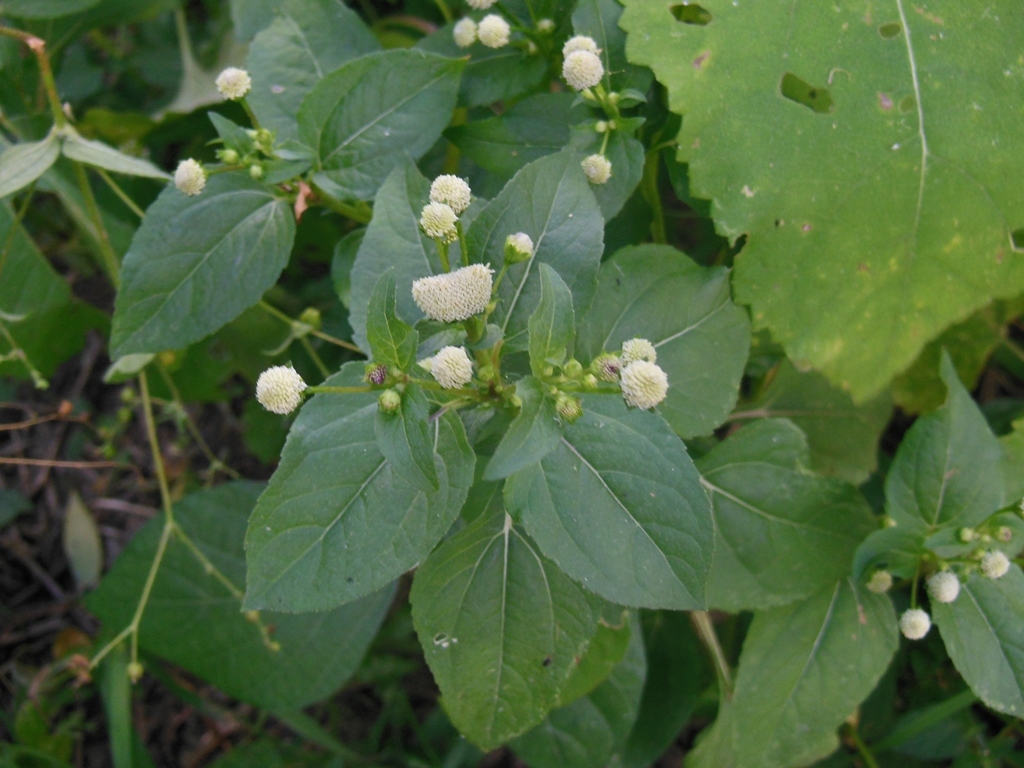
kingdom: Plantae
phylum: Tracheophyta
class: Magnoliopsida
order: Asterales
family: Asteraceae
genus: Melanthera
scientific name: Melanthera nivea
